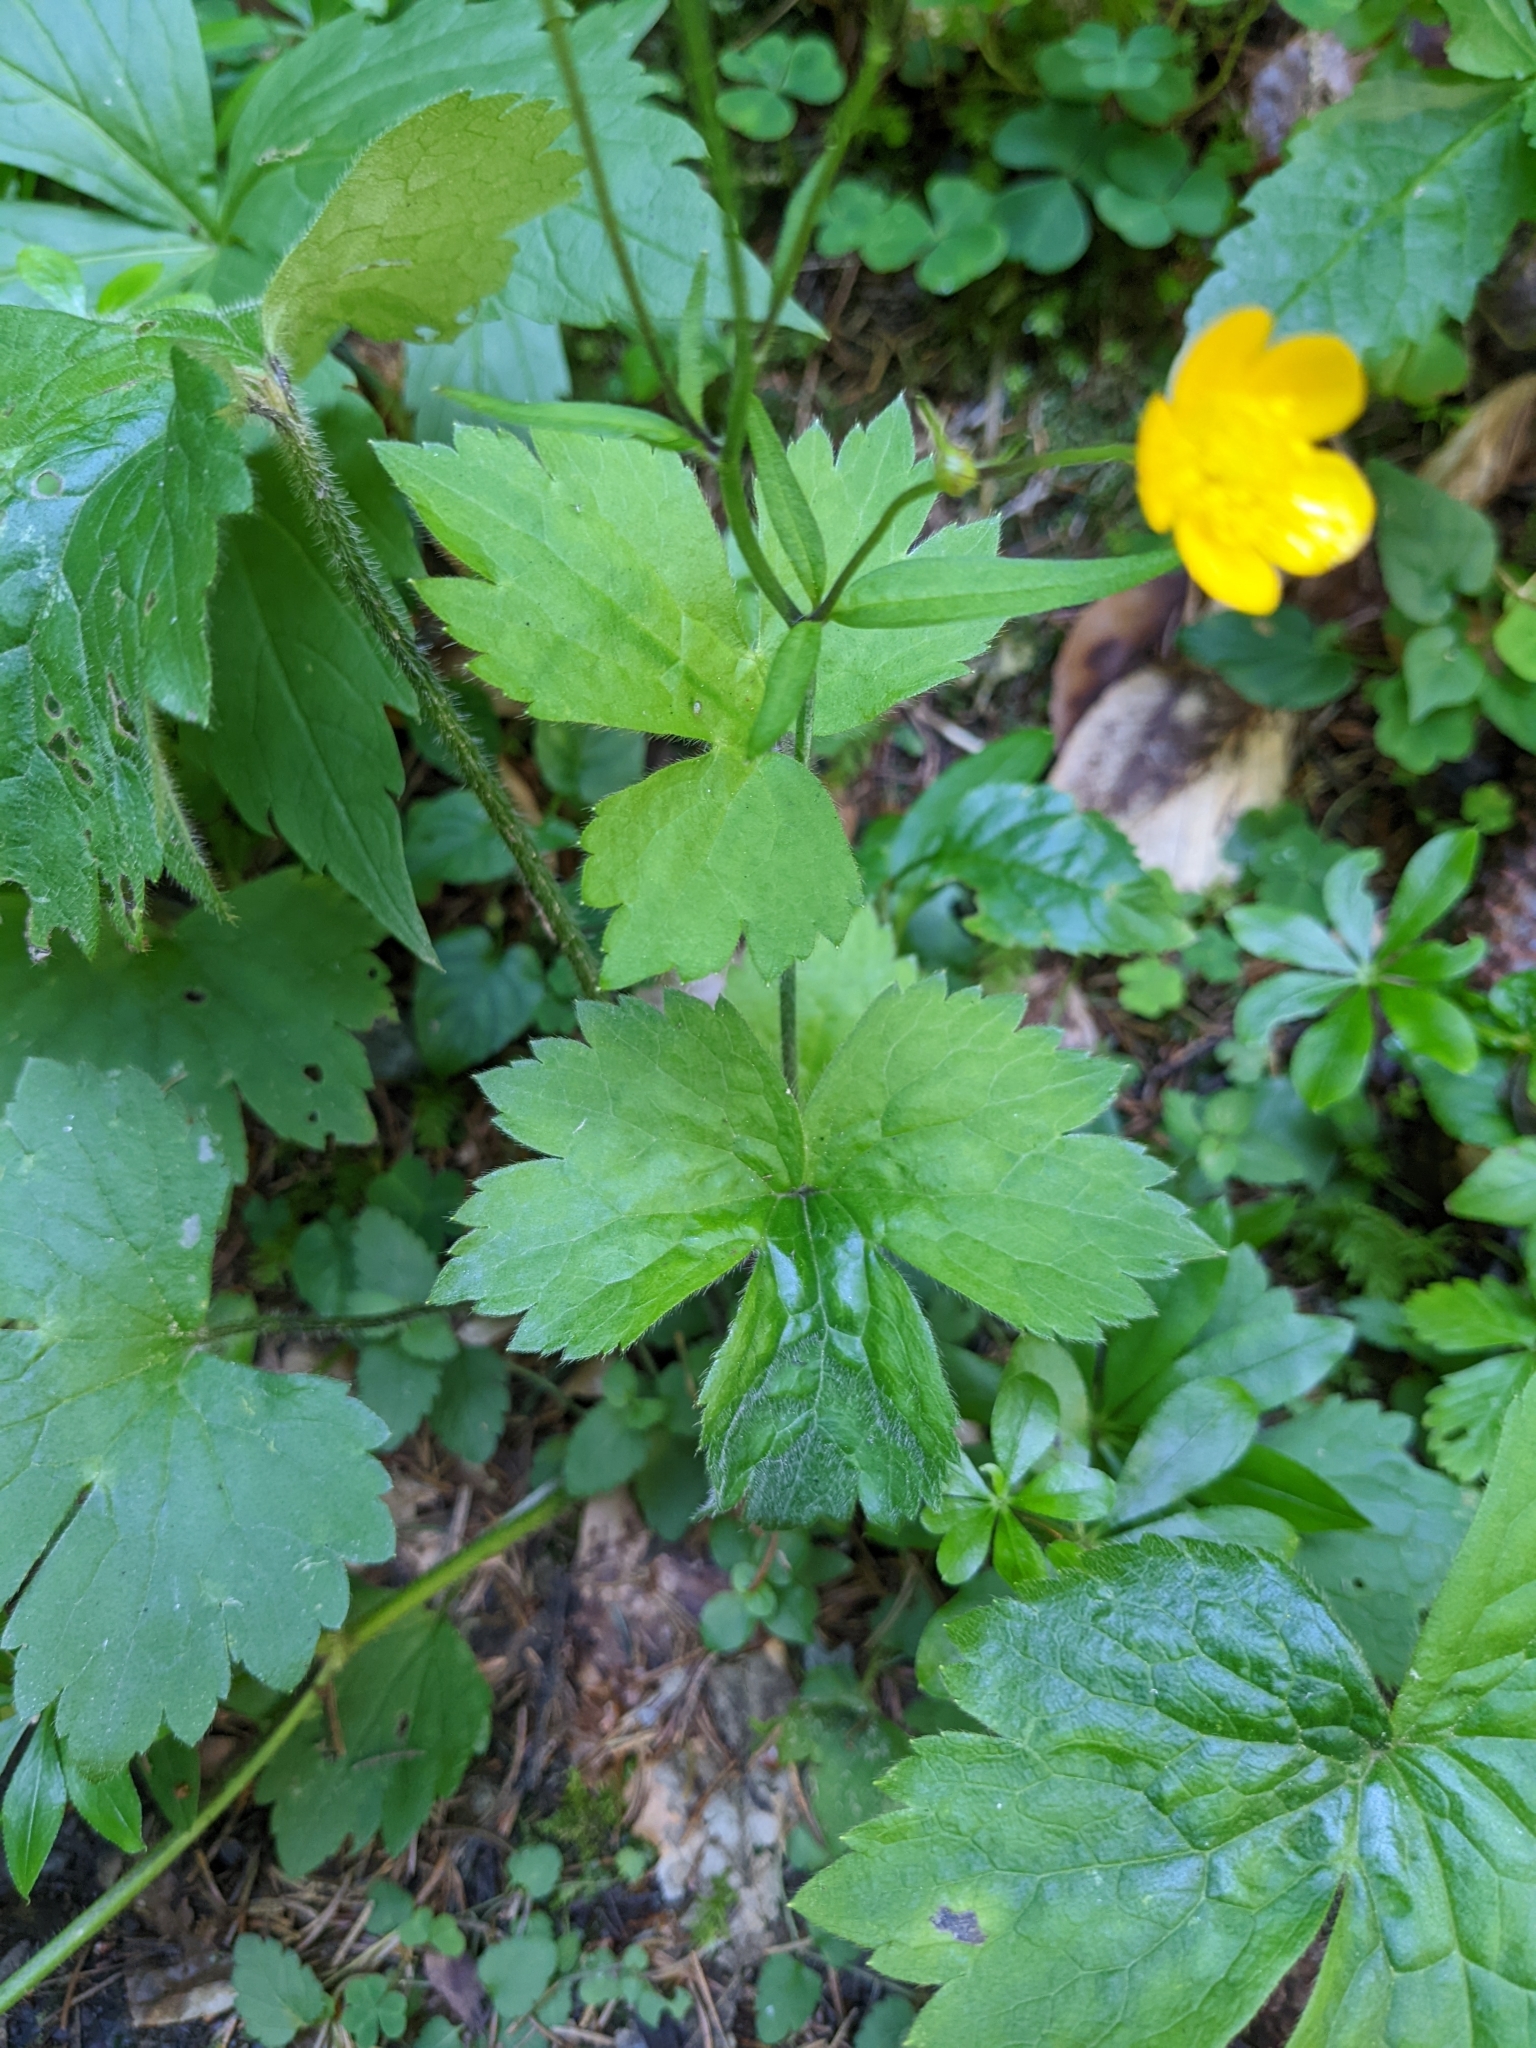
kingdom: Plantae
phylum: Tracheophyta
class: Magnoliopsida
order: Ranunculales
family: Ranunculaceae
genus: Ranunculus
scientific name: Ranunculus lanuginosus
